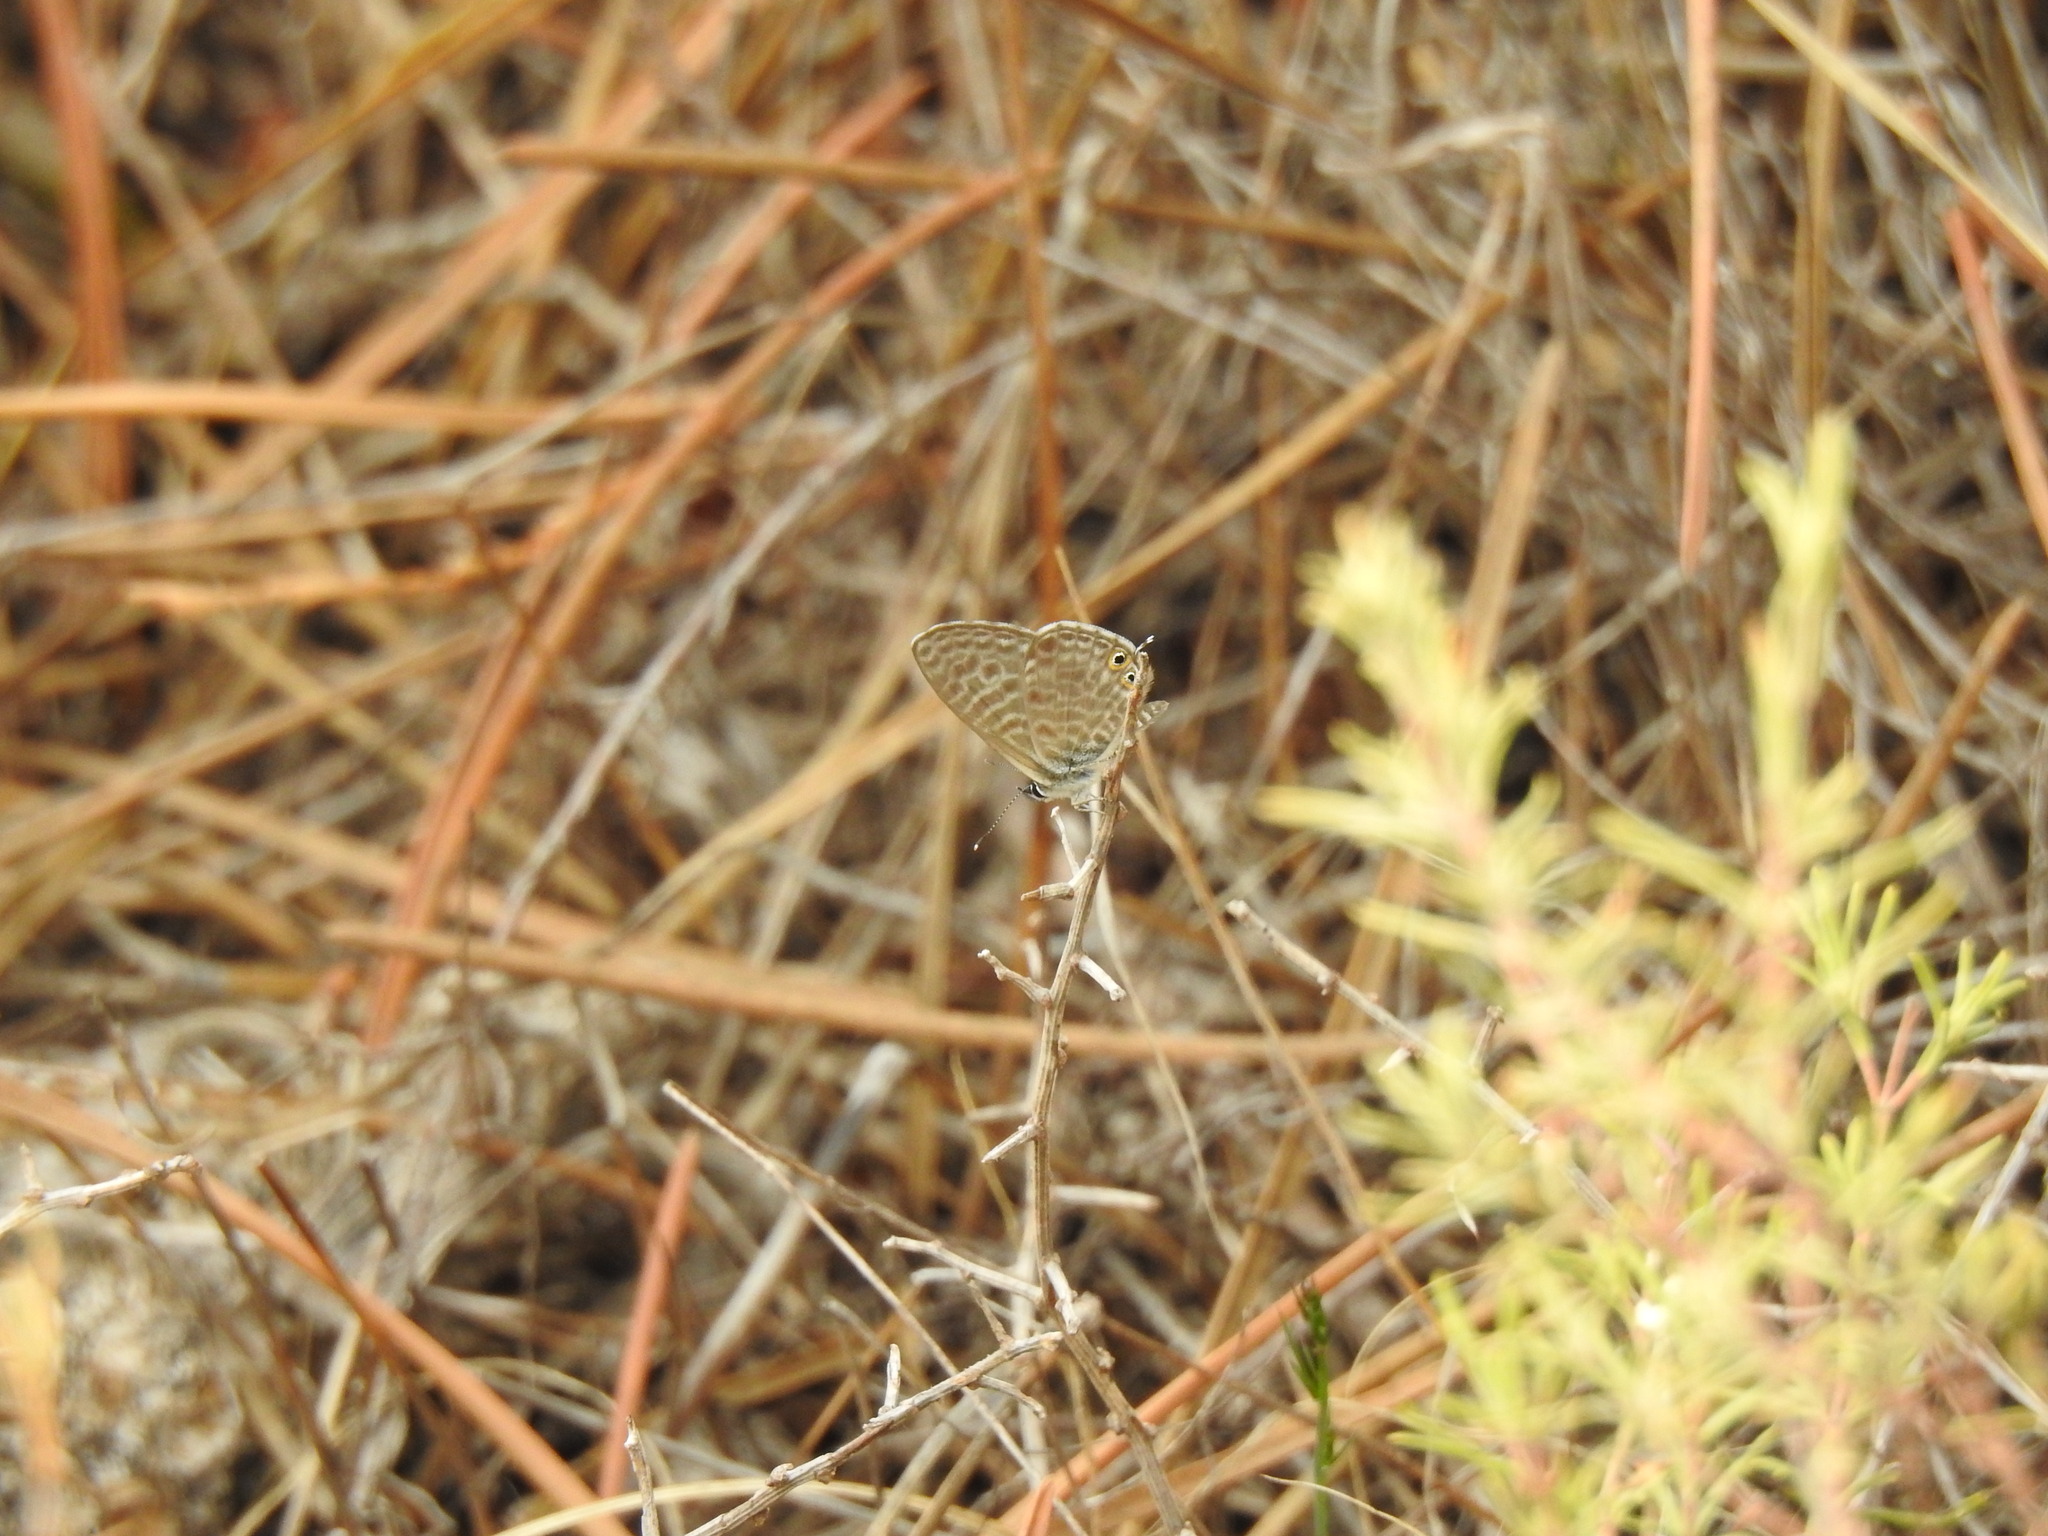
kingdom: Animalia
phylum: Arthropoda
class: Insecta
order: Lepidoptera
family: Lycaenidae
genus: Leptotes
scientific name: Leptotes pirithous
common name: Lang's short-tailed blue
